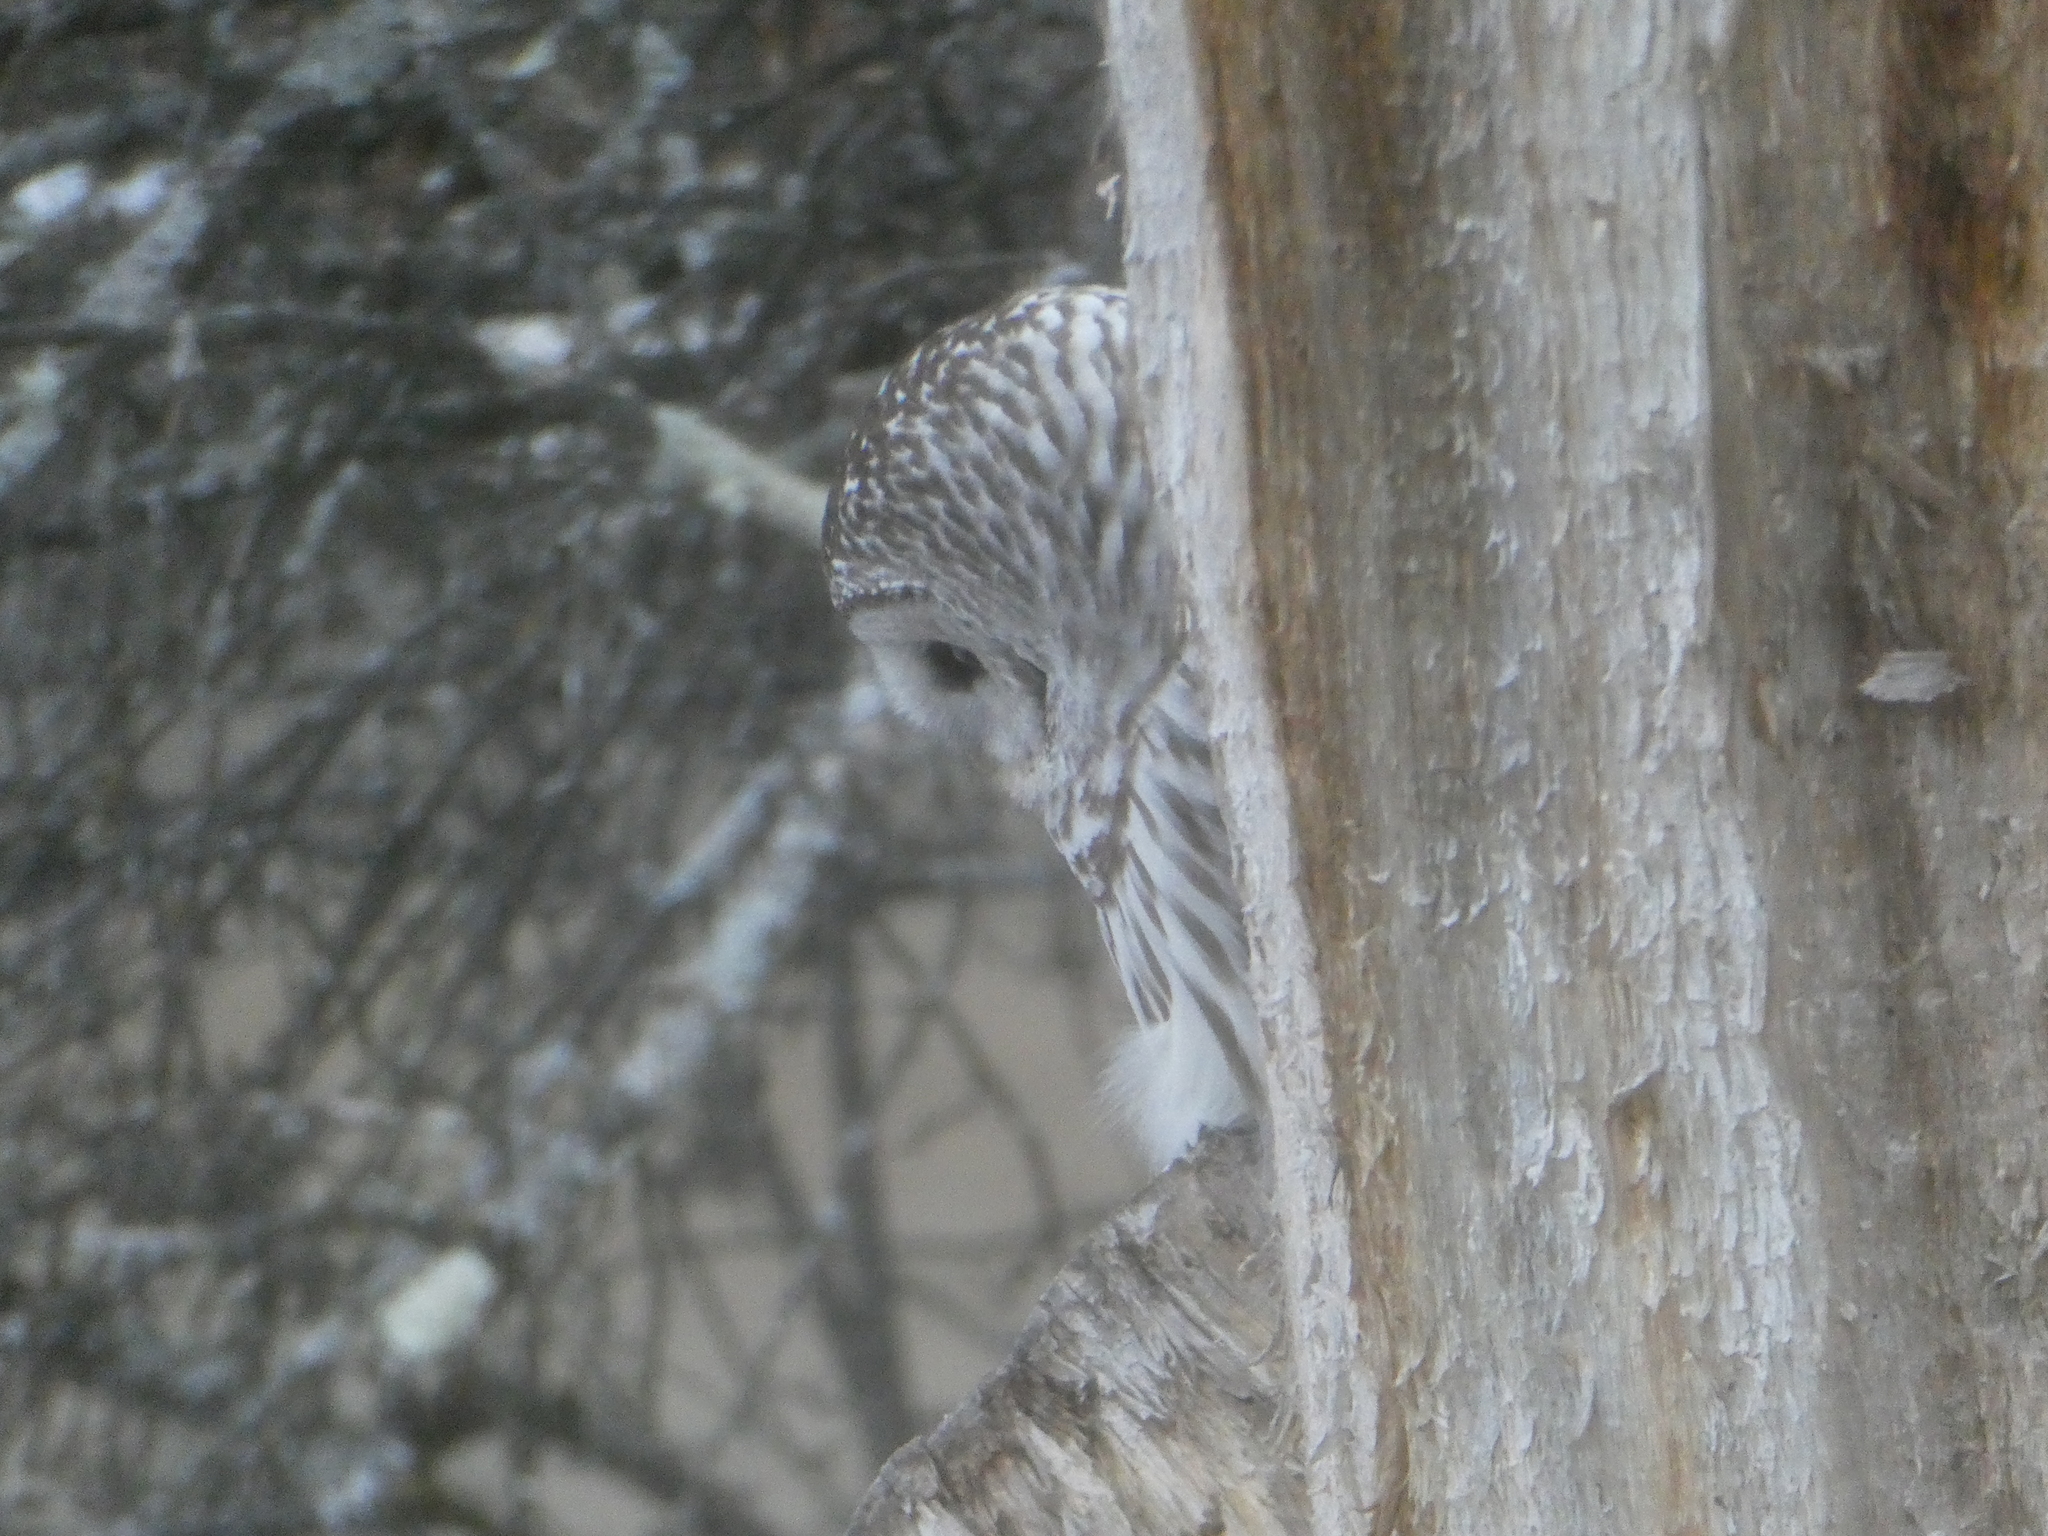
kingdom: Animalia
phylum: Chordata
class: Aves
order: Strigiformes
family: Strigidae
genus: Strix
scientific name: Strix varia
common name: Barred owl
